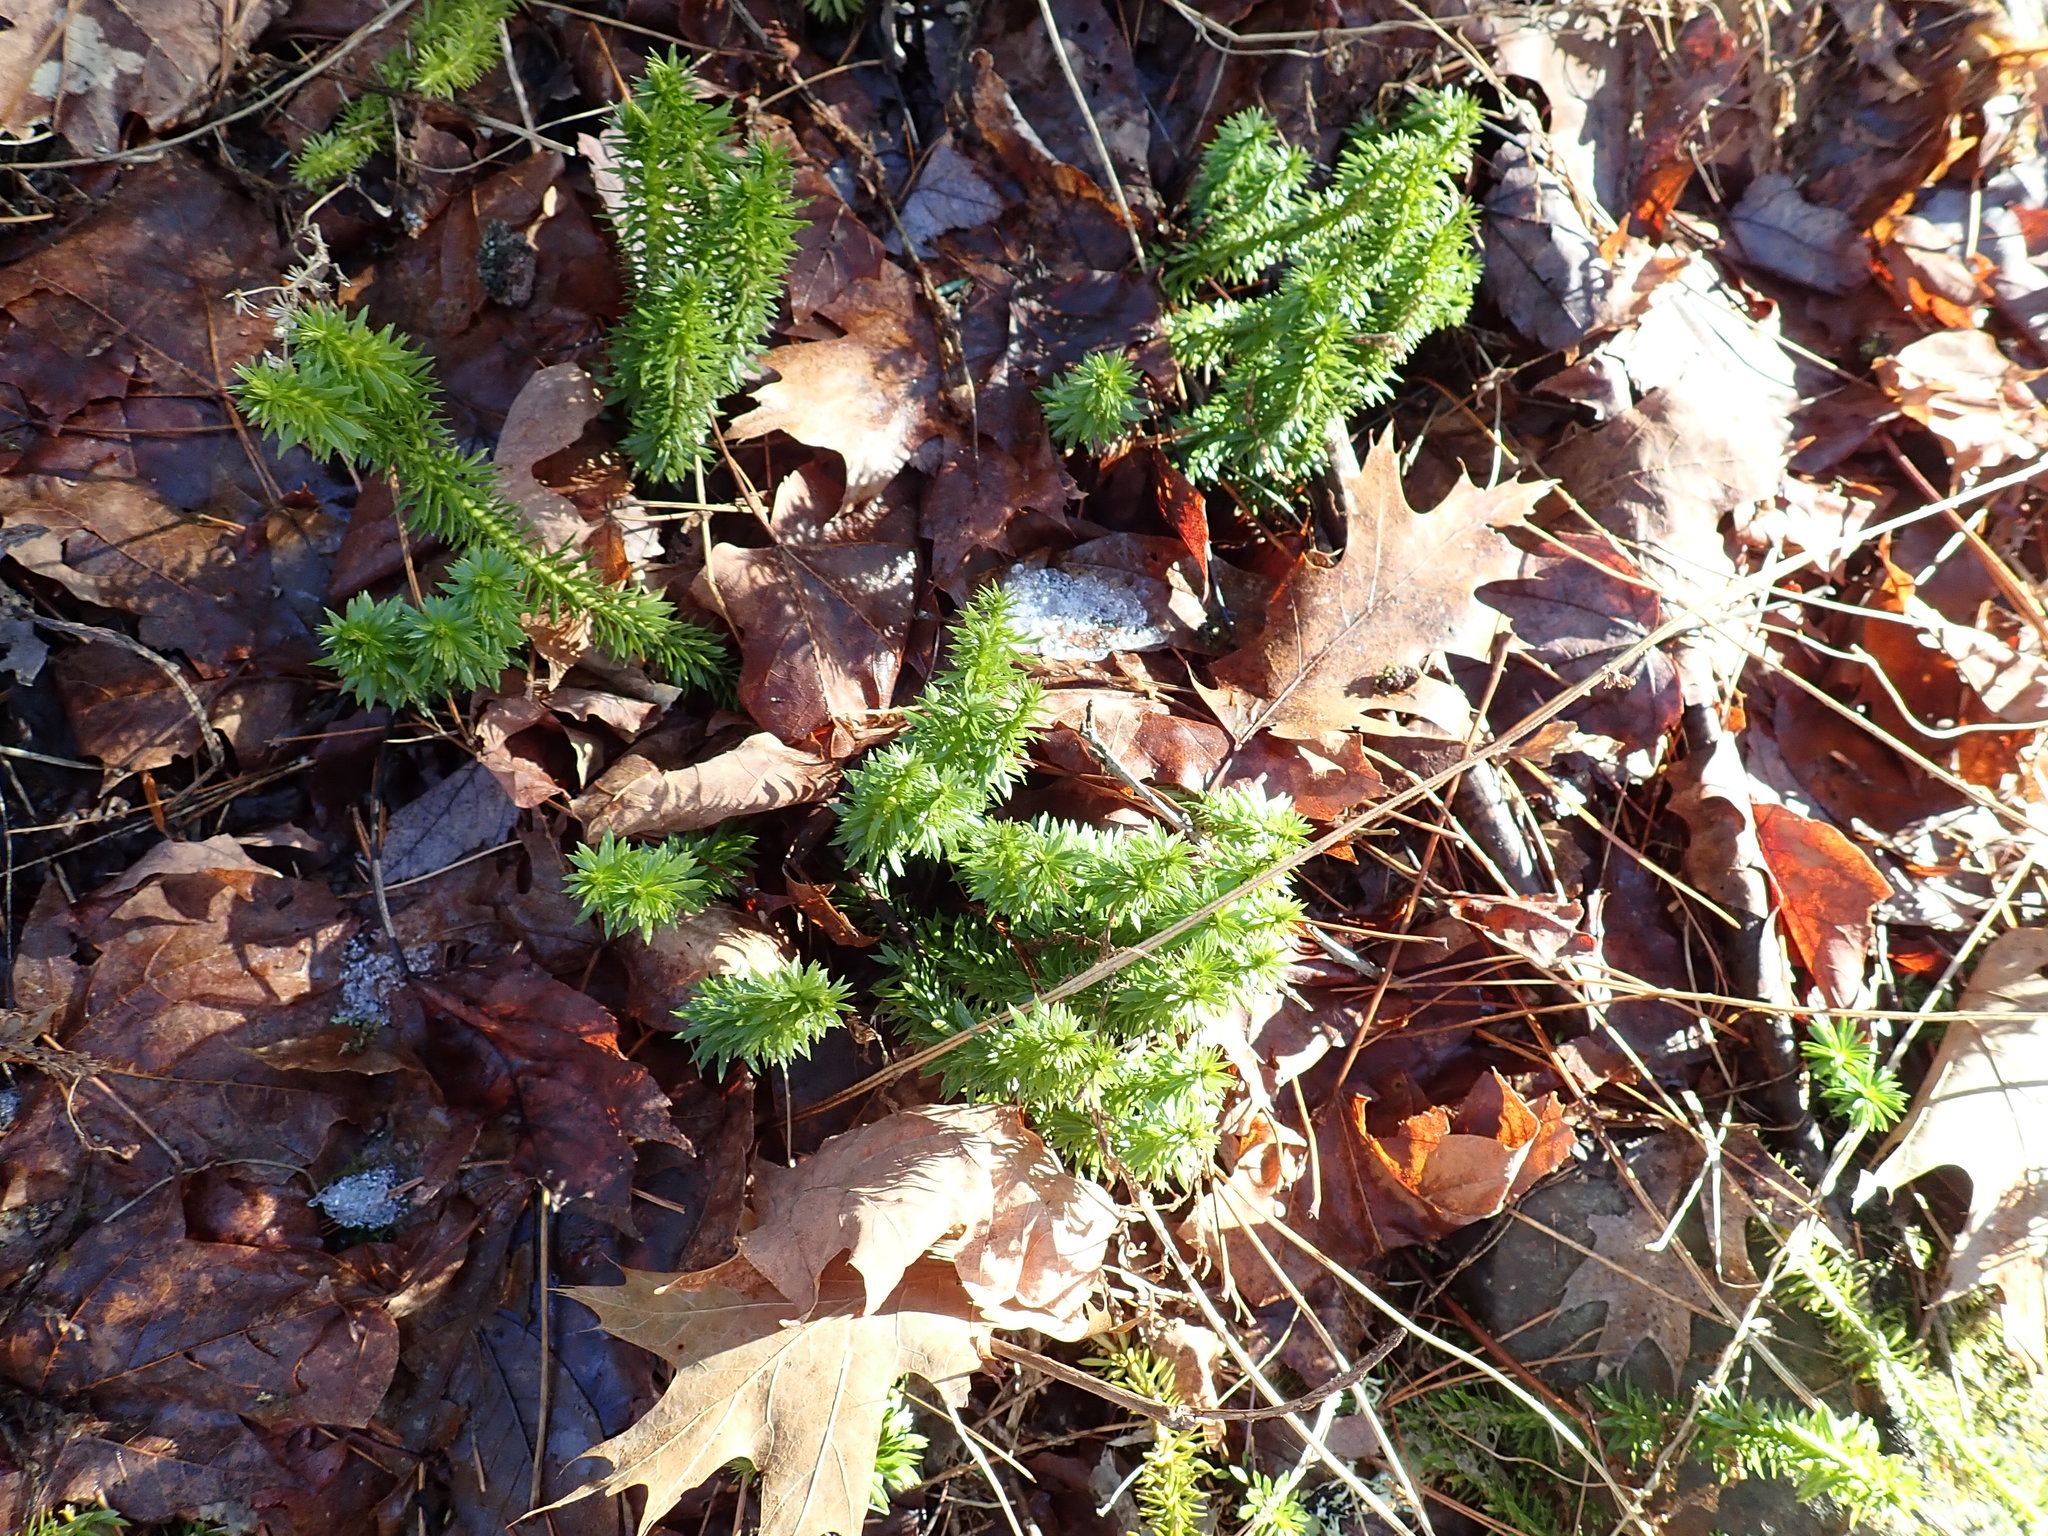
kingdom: Plantae
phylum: Tracheophyta
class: Lycopodiopsida
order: Lycopodiales
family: Lycopodiaceae
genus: Huperzia
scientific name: Huperzia lucidula
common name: Shining clubmoss
